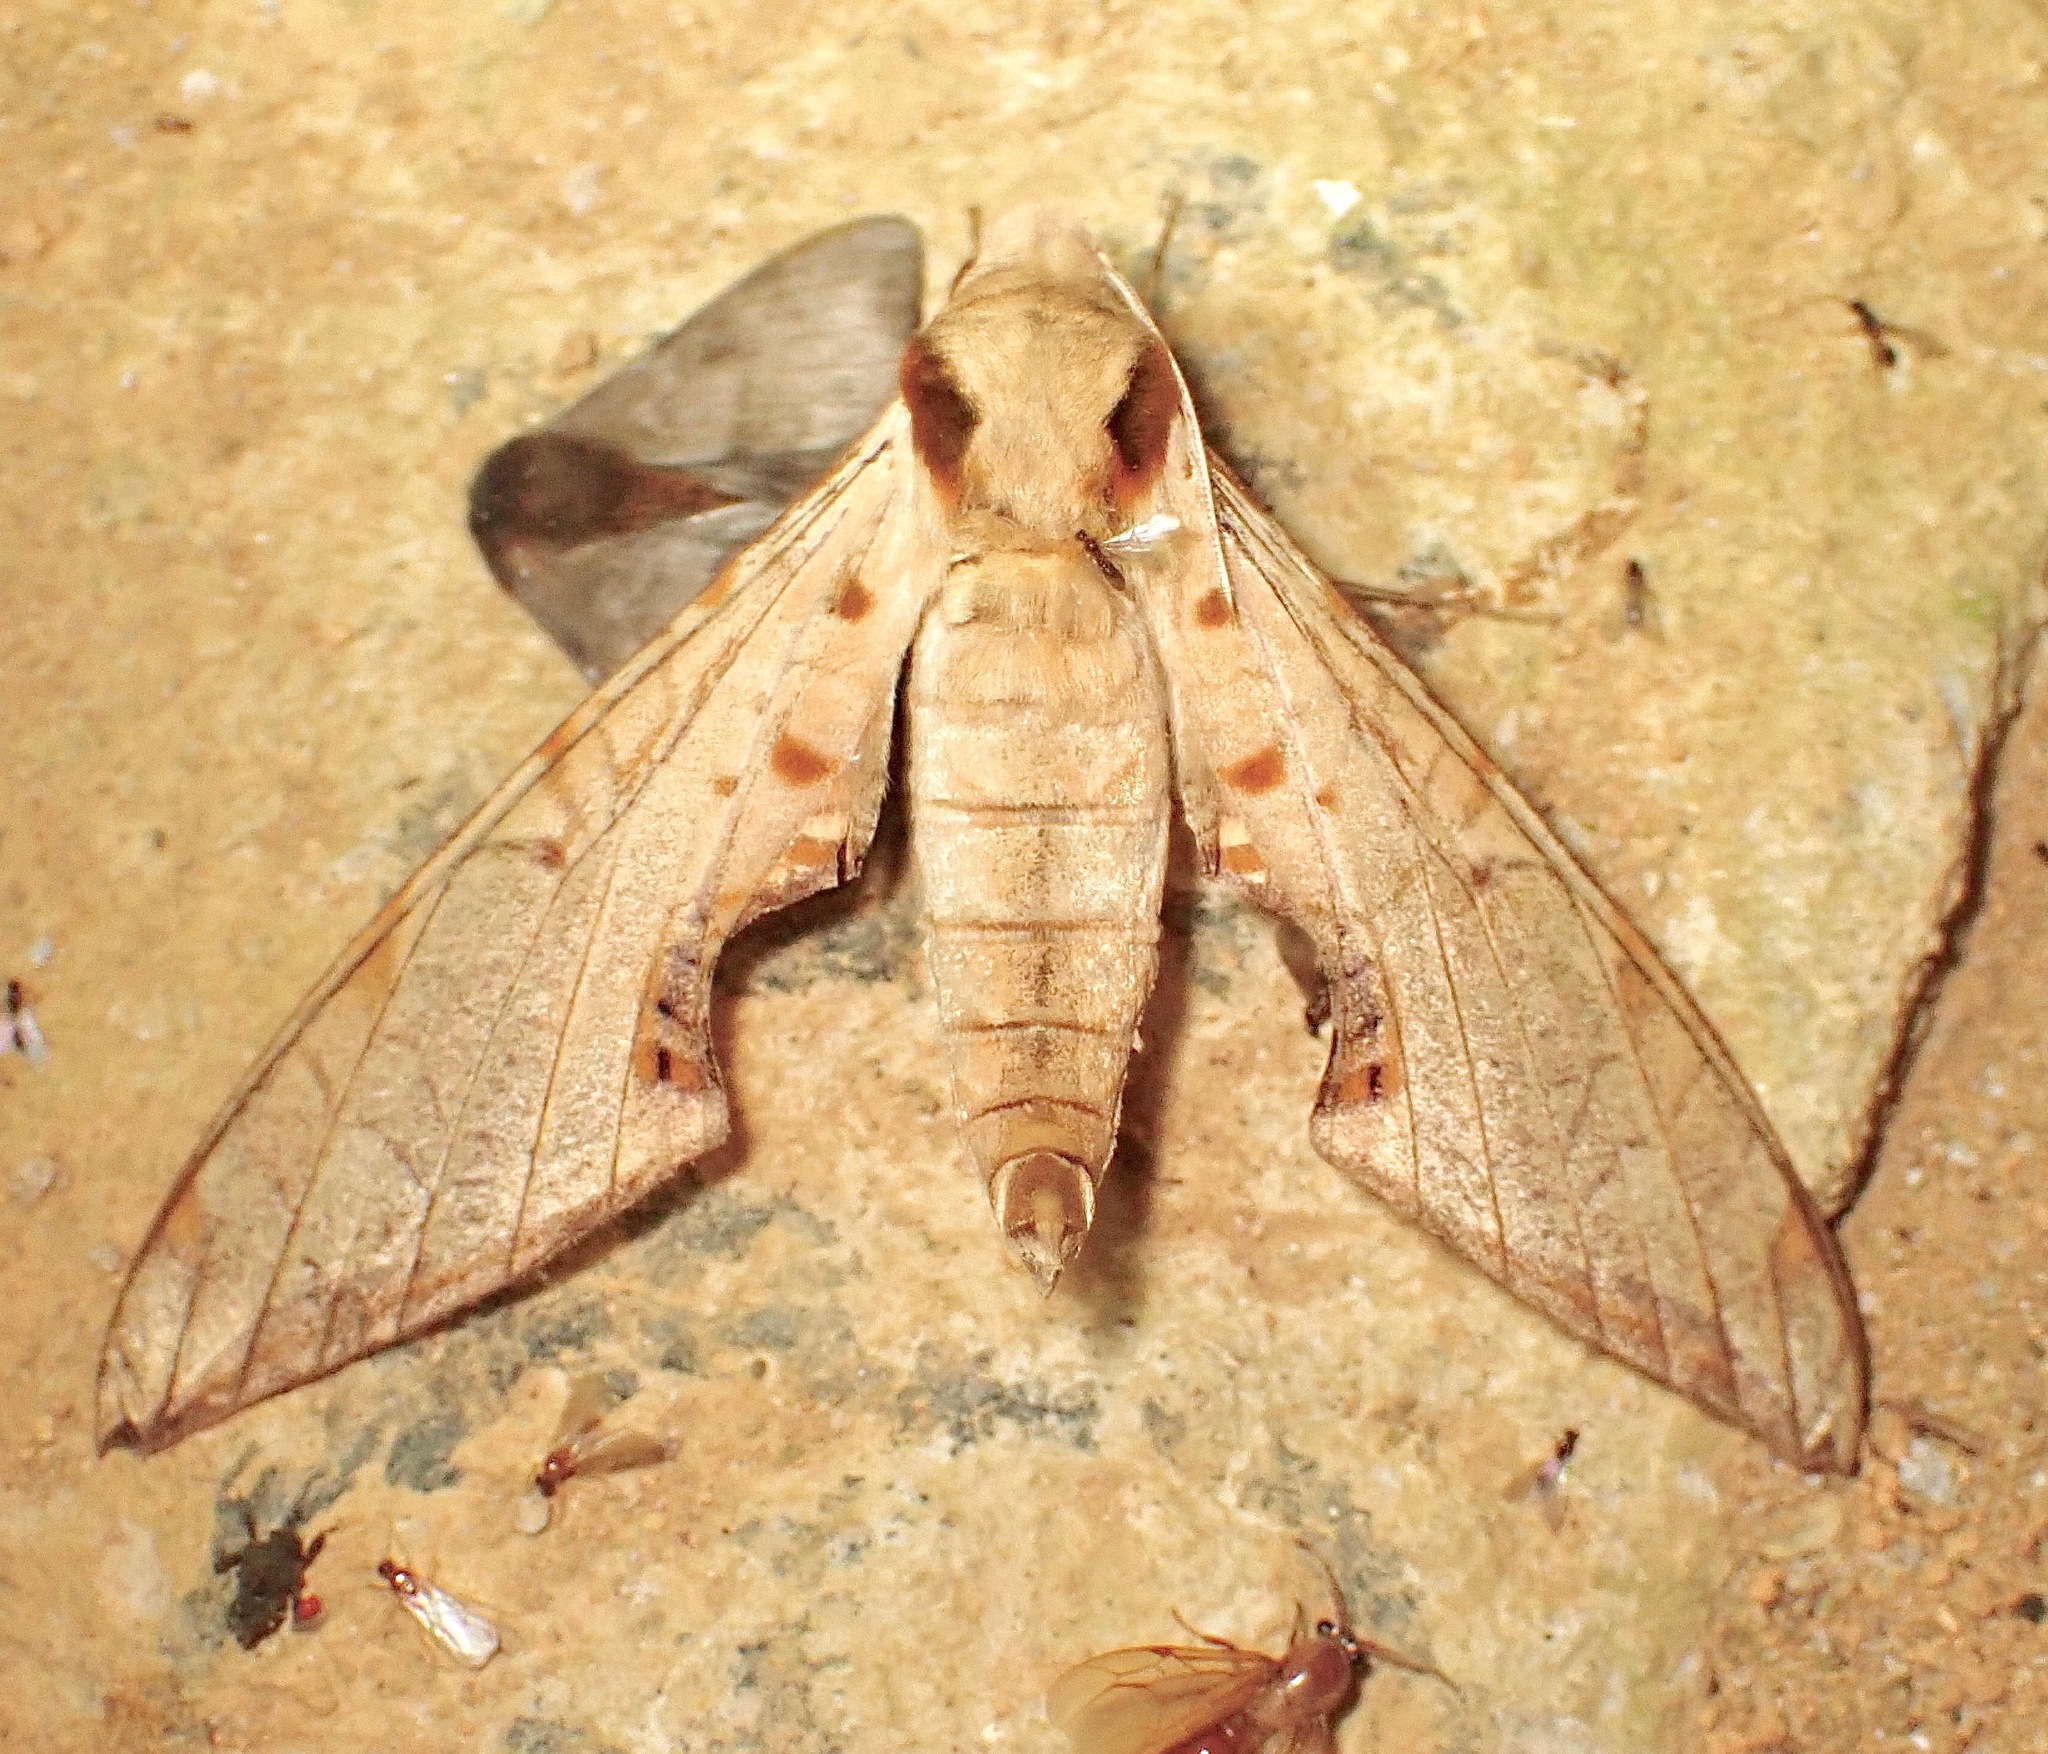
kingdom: Animalia
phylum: Arthropoda
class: Insecta
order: Lepidoptera
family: Sphingidae
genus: Protambulyx
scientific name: Protambulyx strigilis
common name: Streaked sphinx
